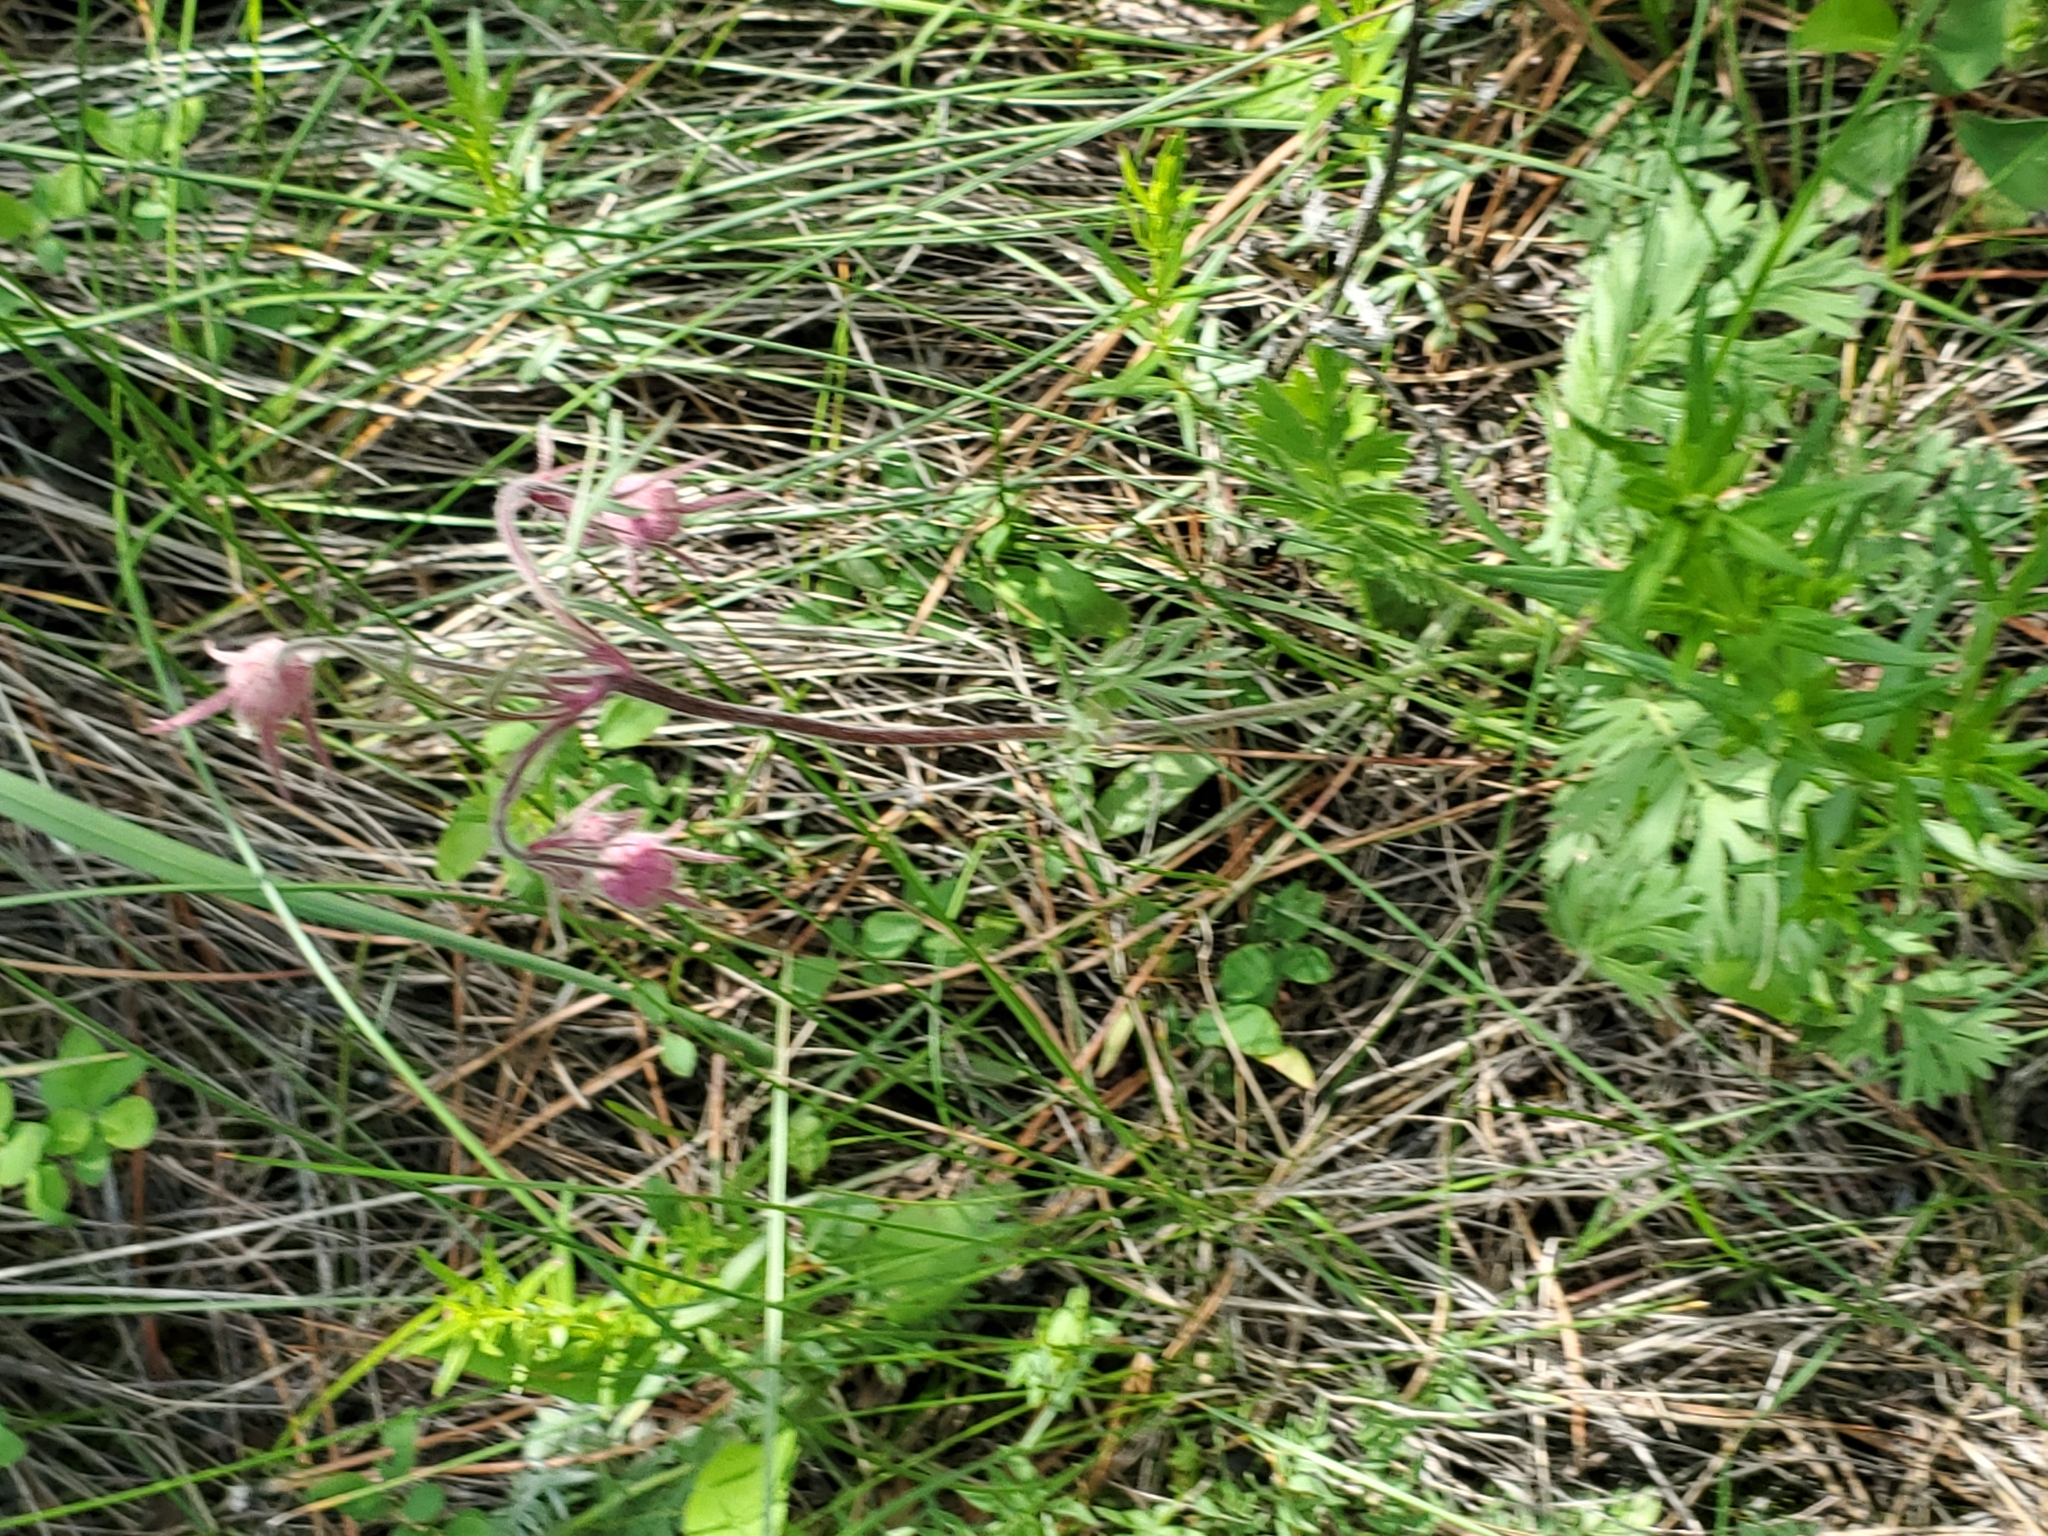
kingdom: Plantae
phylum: Tracheophyta
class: Magnoliopsida
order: Rosales
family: Rosaceae
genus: Geum
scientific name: Geum triflorum
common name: Old man's whiskers
